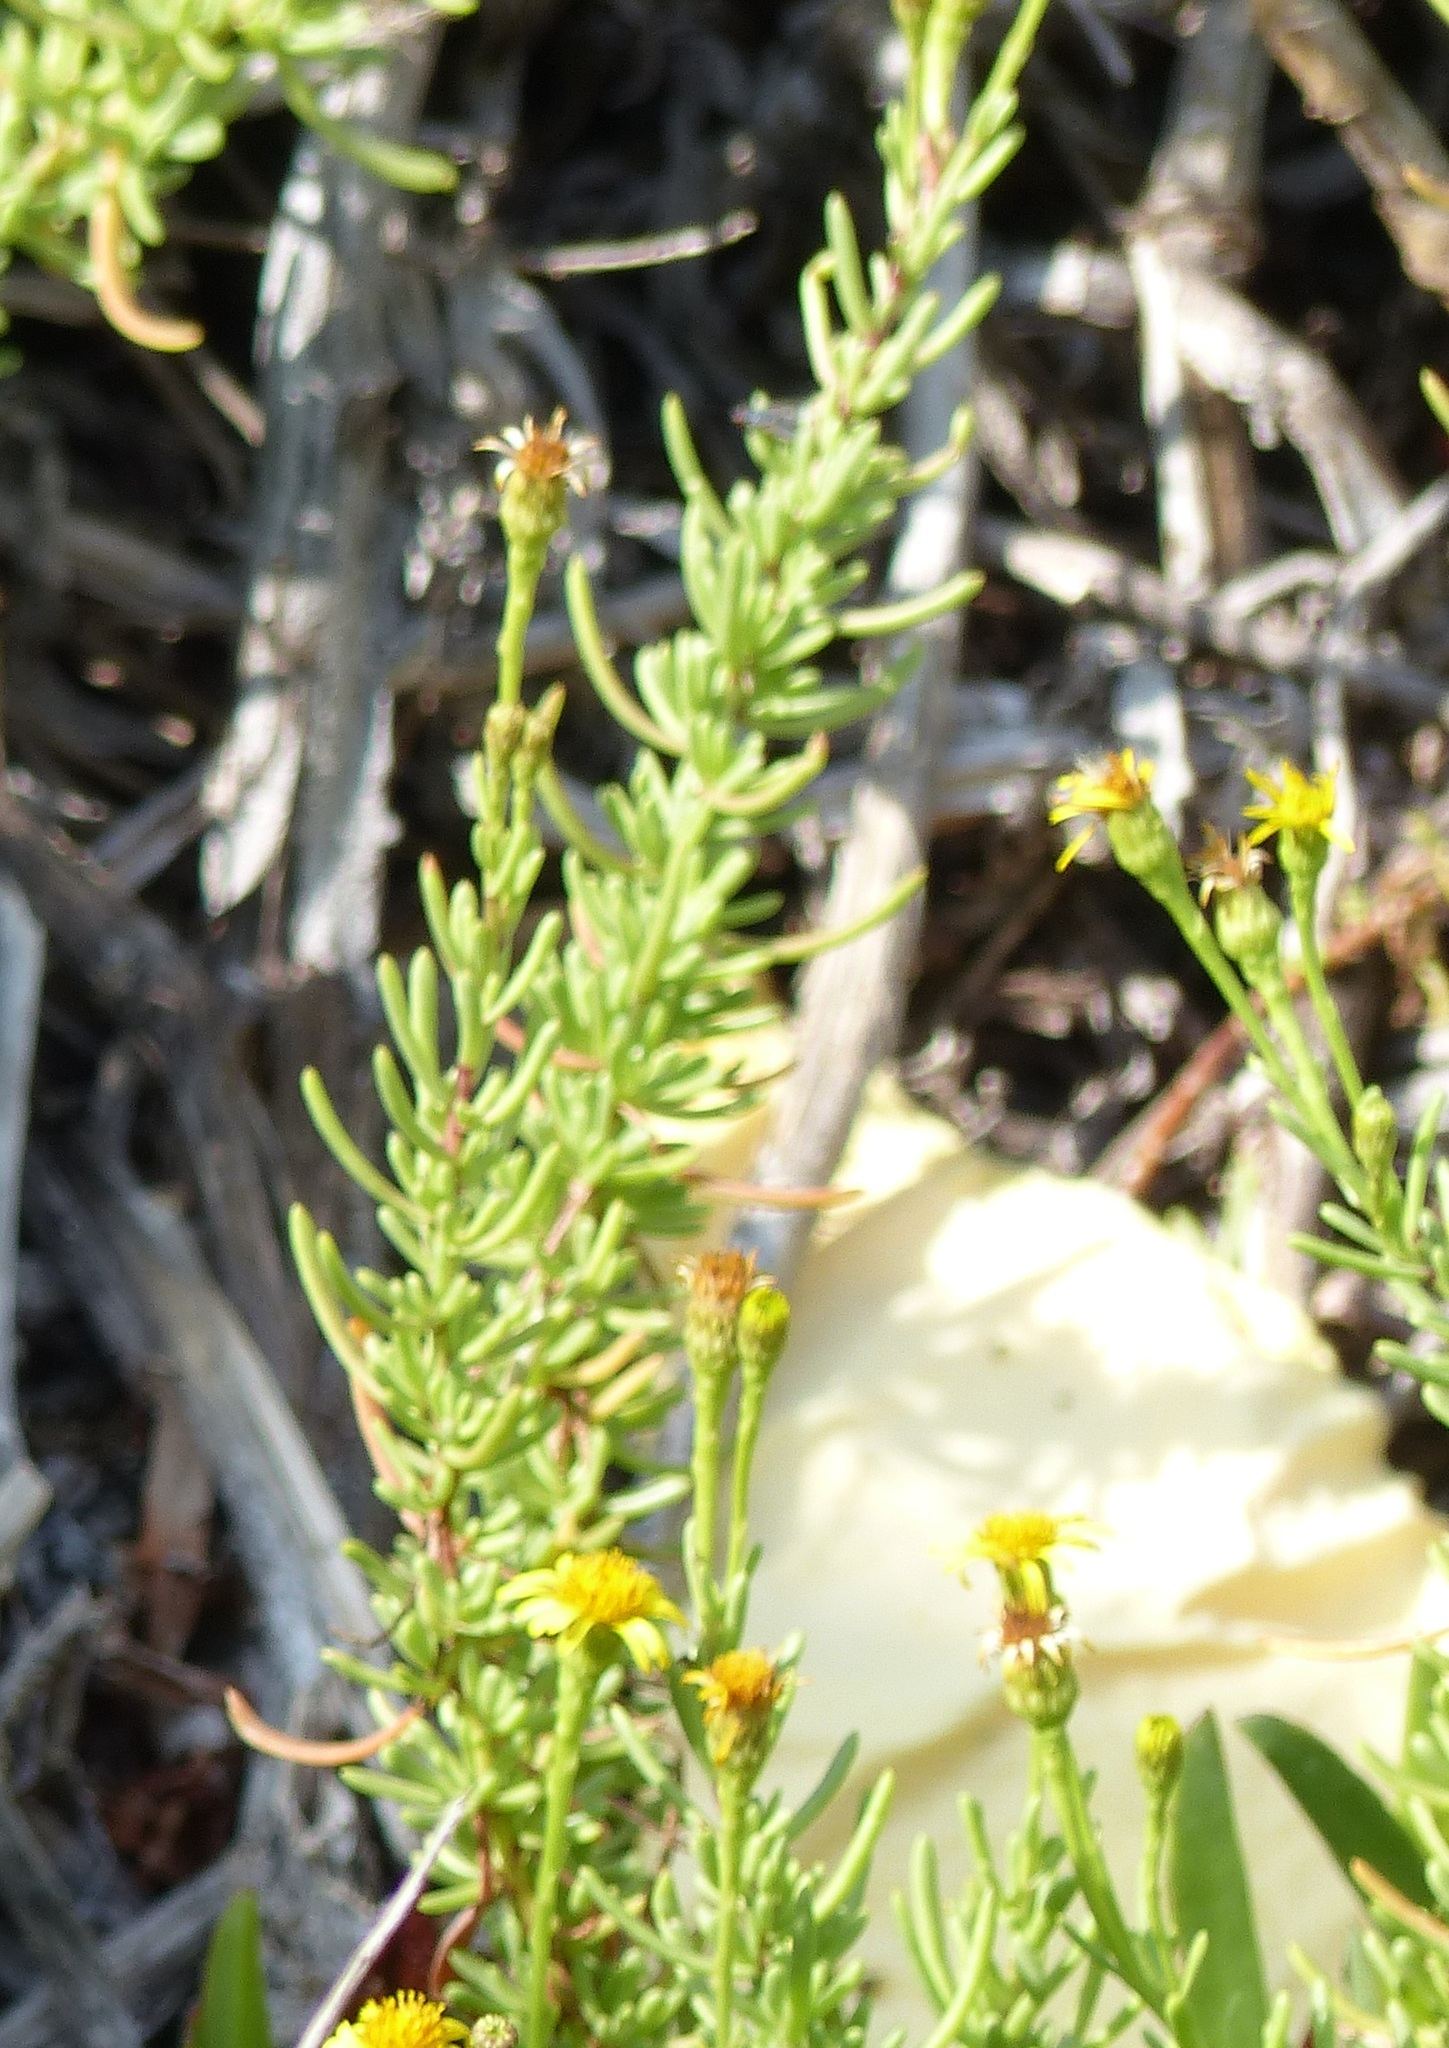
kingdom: Plantae
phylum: Tracheophyta
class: Magnoliopsida
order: Asterales
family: Asteraceae
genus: Limbarda
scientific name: Limbarda crithmoides
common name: Golden samphire
